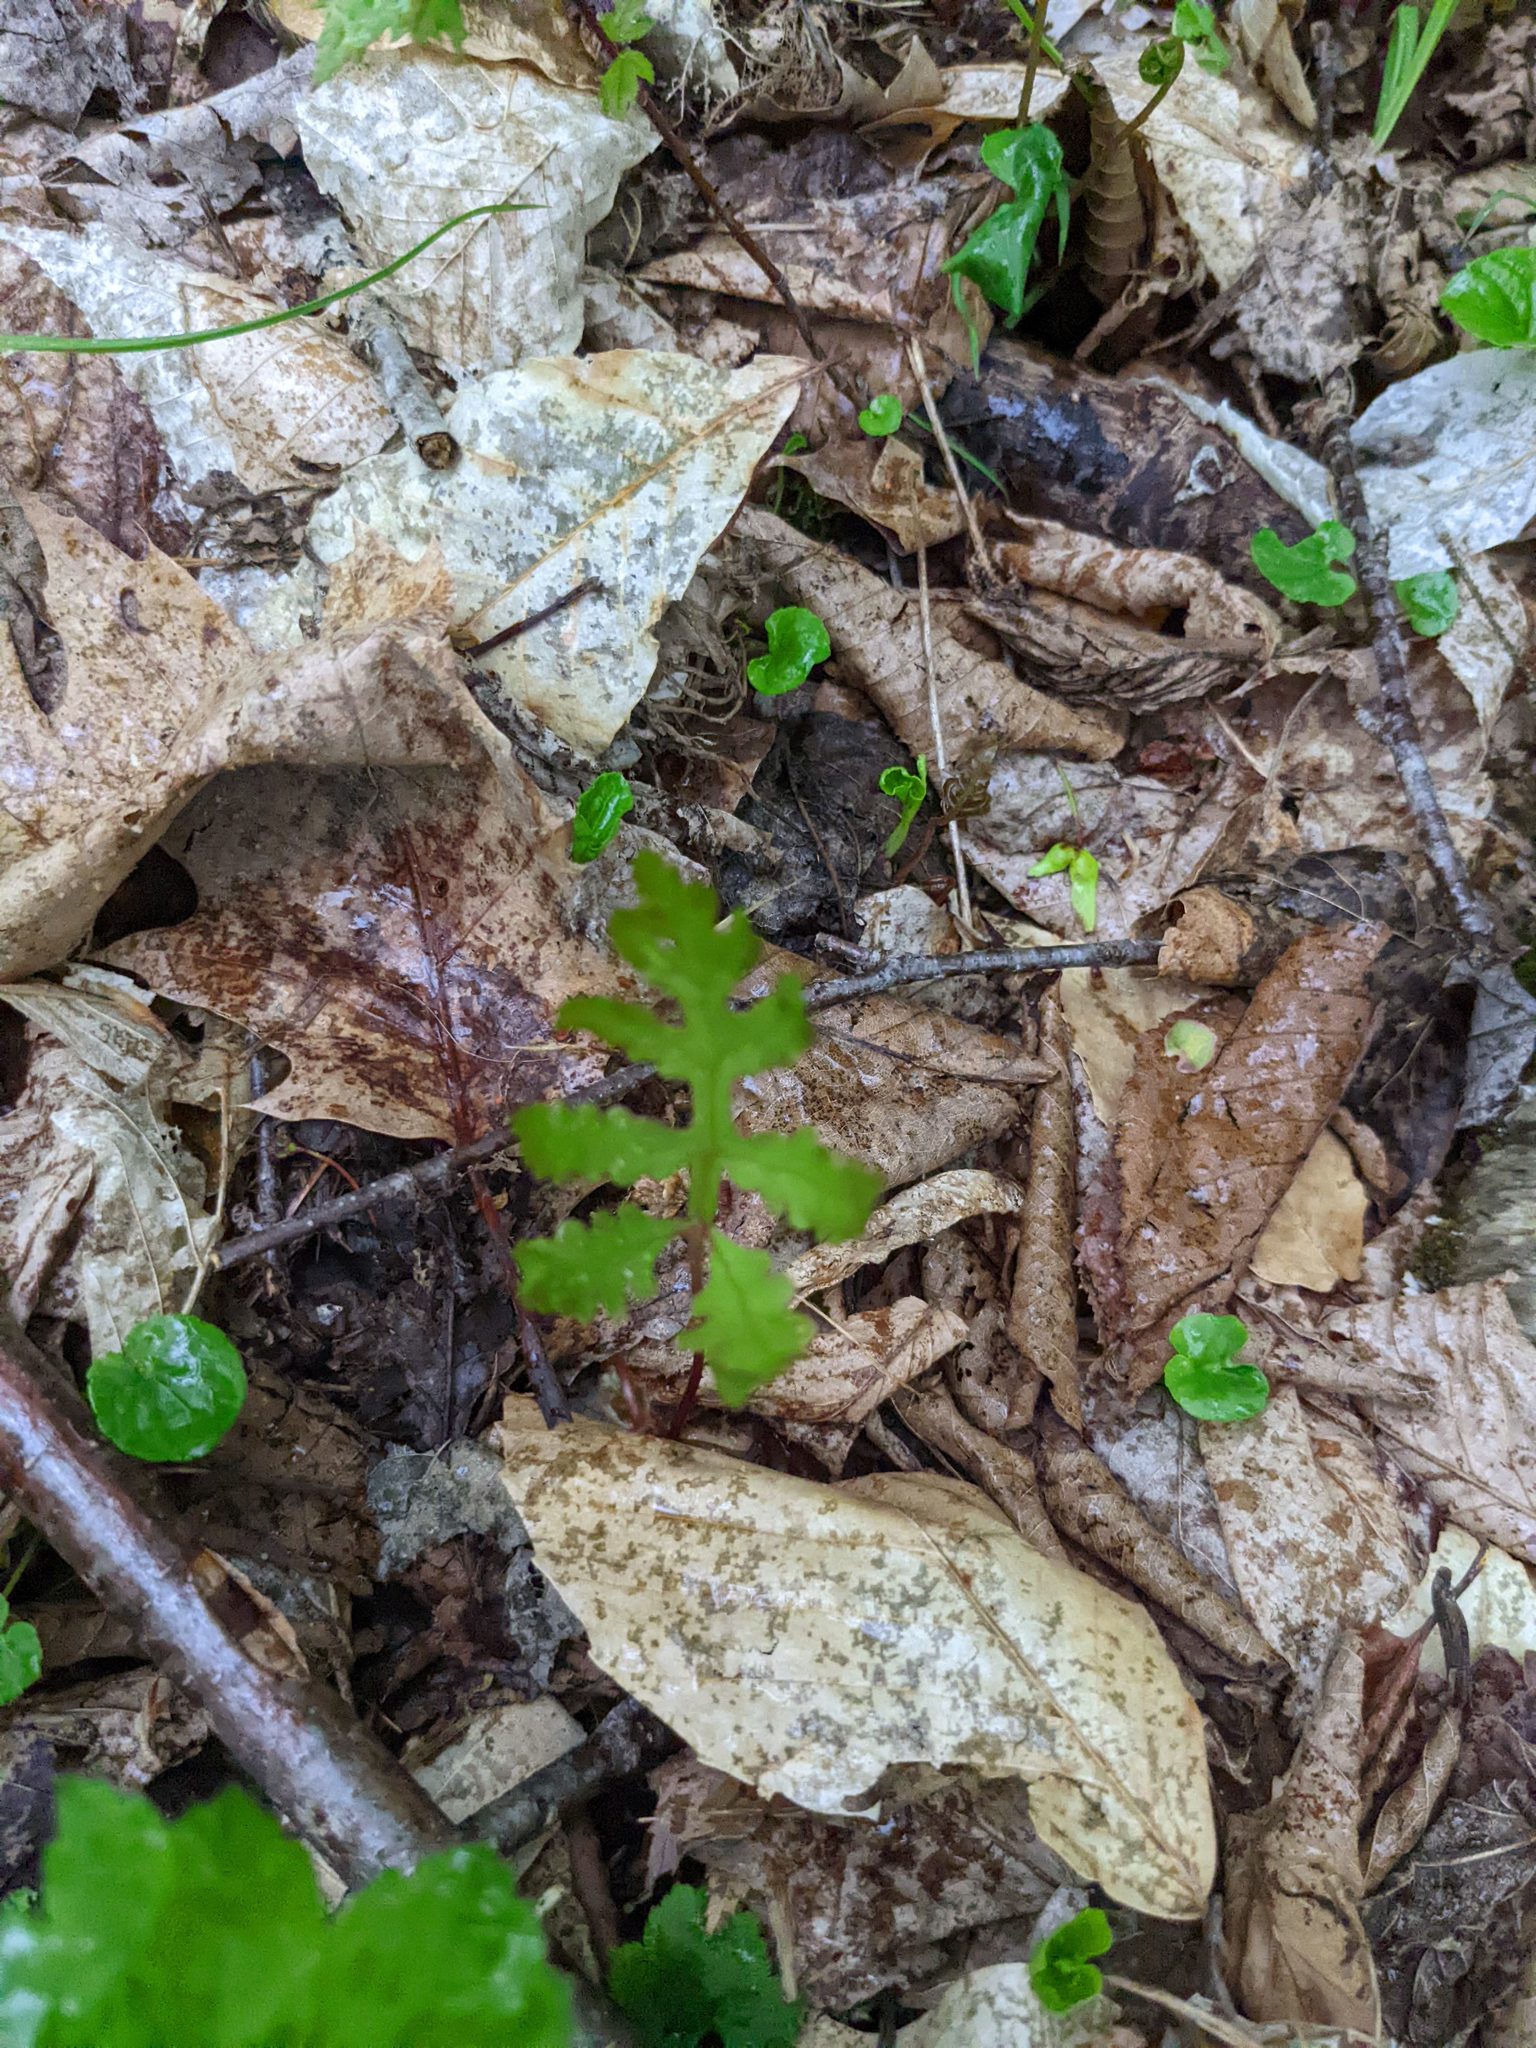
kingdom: Plantae
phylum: Tracheophyta
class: Polypodiopsida
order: Polypodiales
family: Onocleaceae
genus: Onoclea
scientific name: Onoclea sensibilis
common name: Sensitive fern
